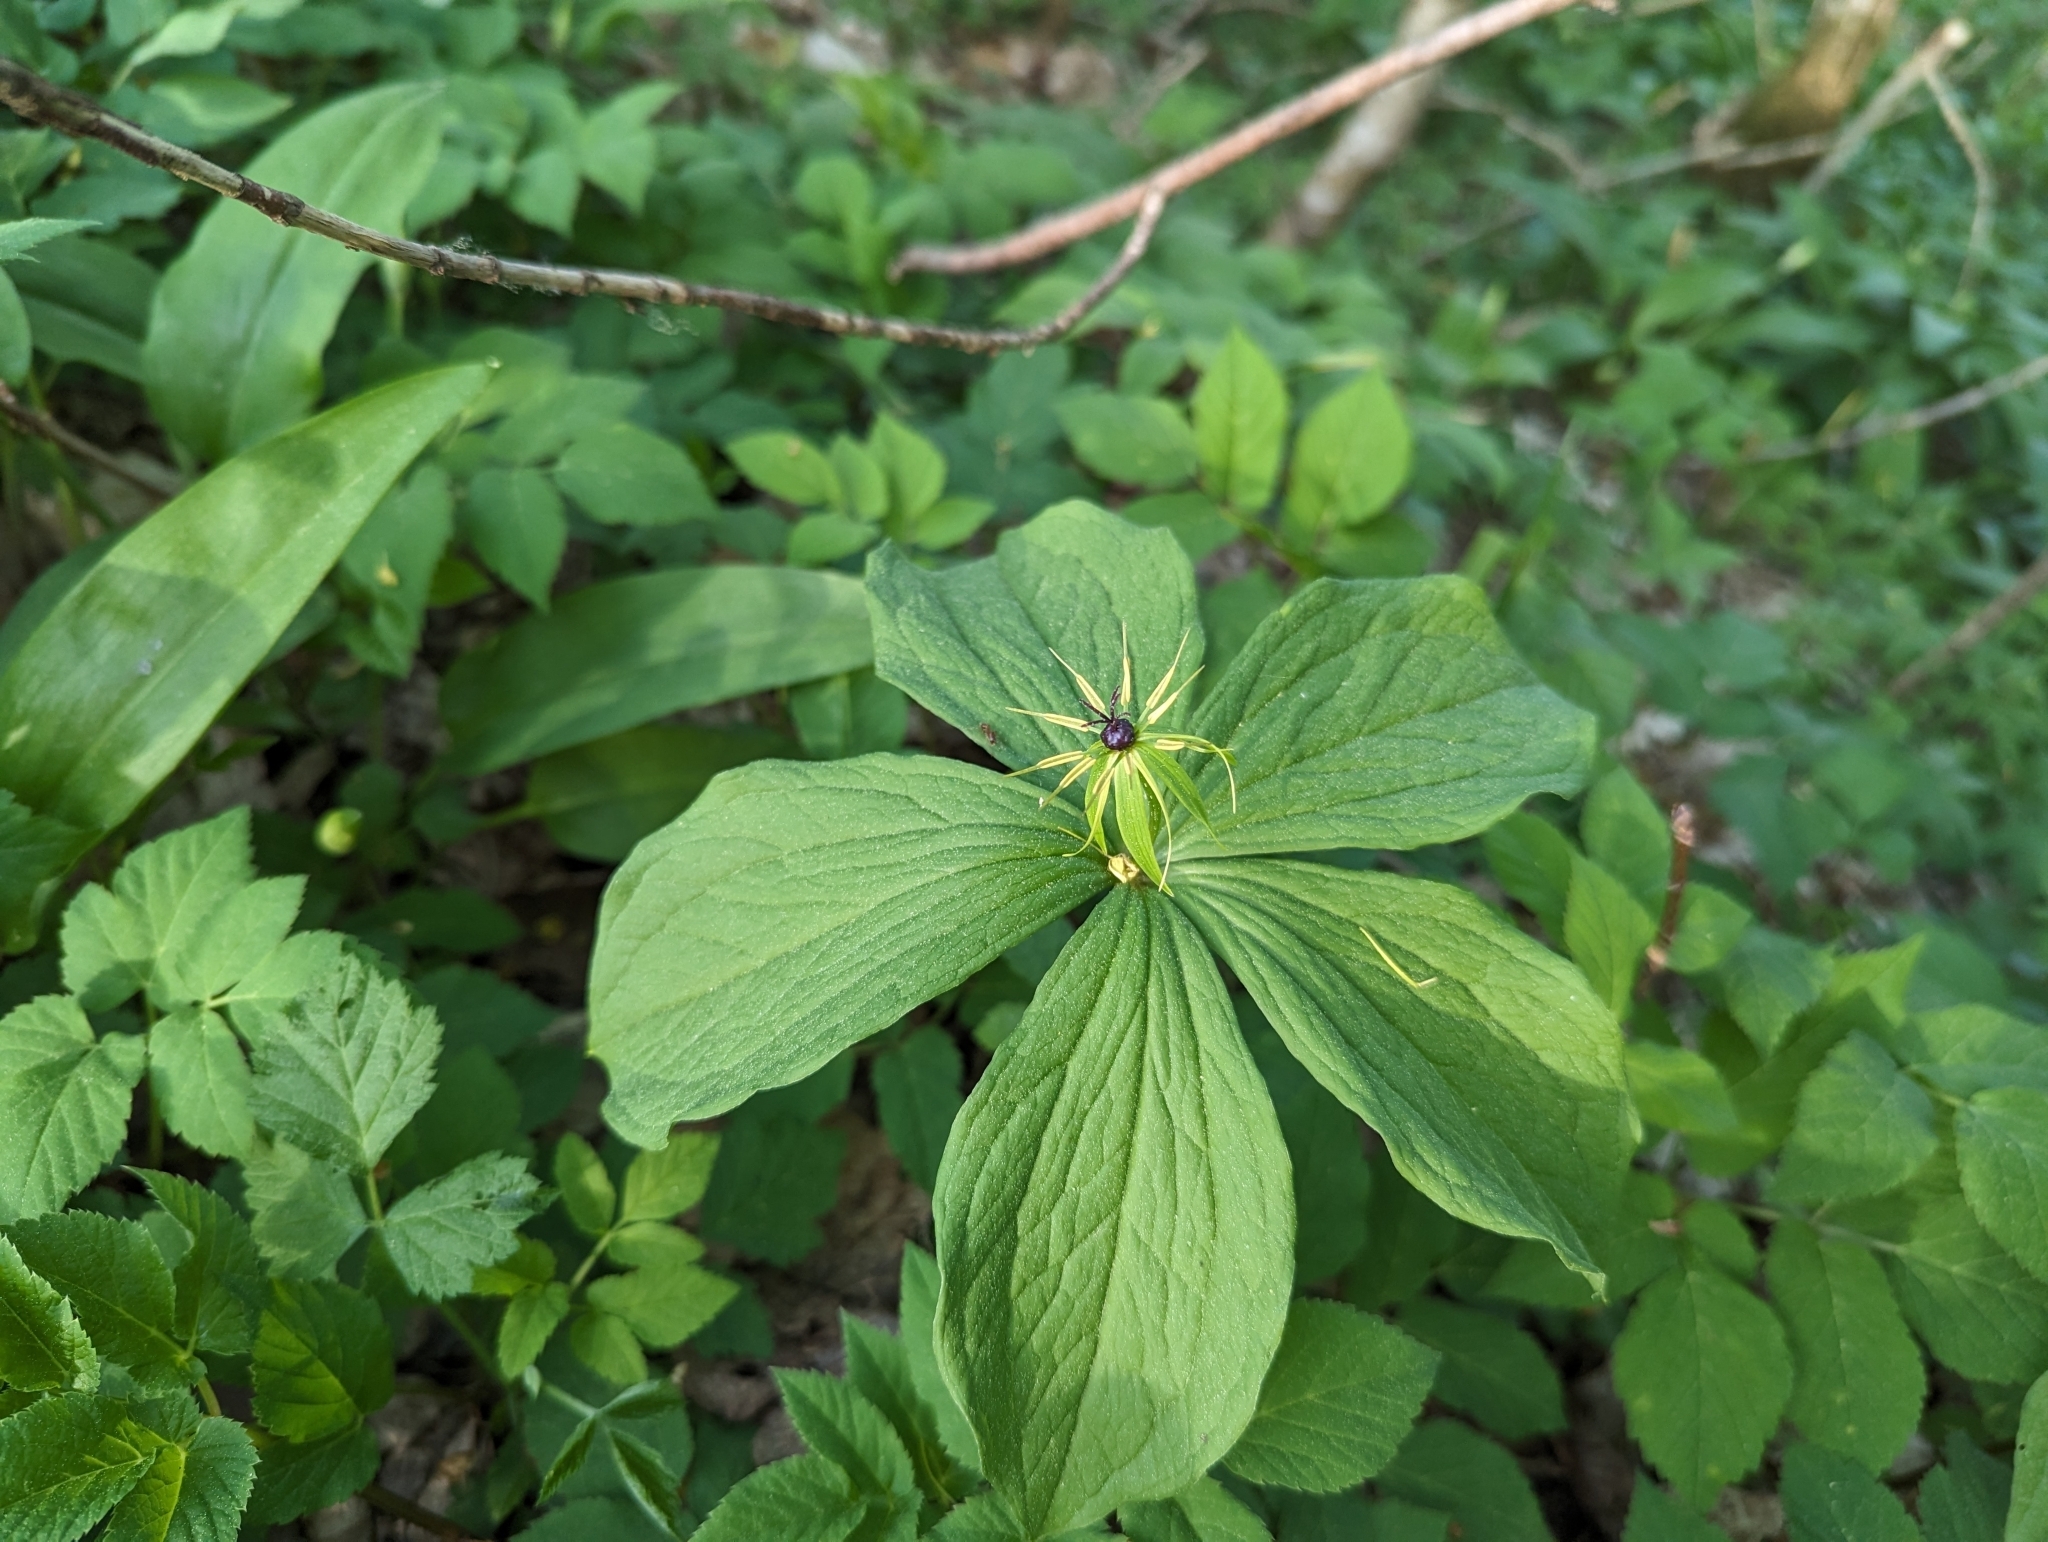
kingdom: Plantae
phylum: Tracheophyta
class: Liliopsida
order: Liliales
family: Melanthiaceae
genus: Paris
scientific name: Paris quadrifolia
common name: Herb-paris
